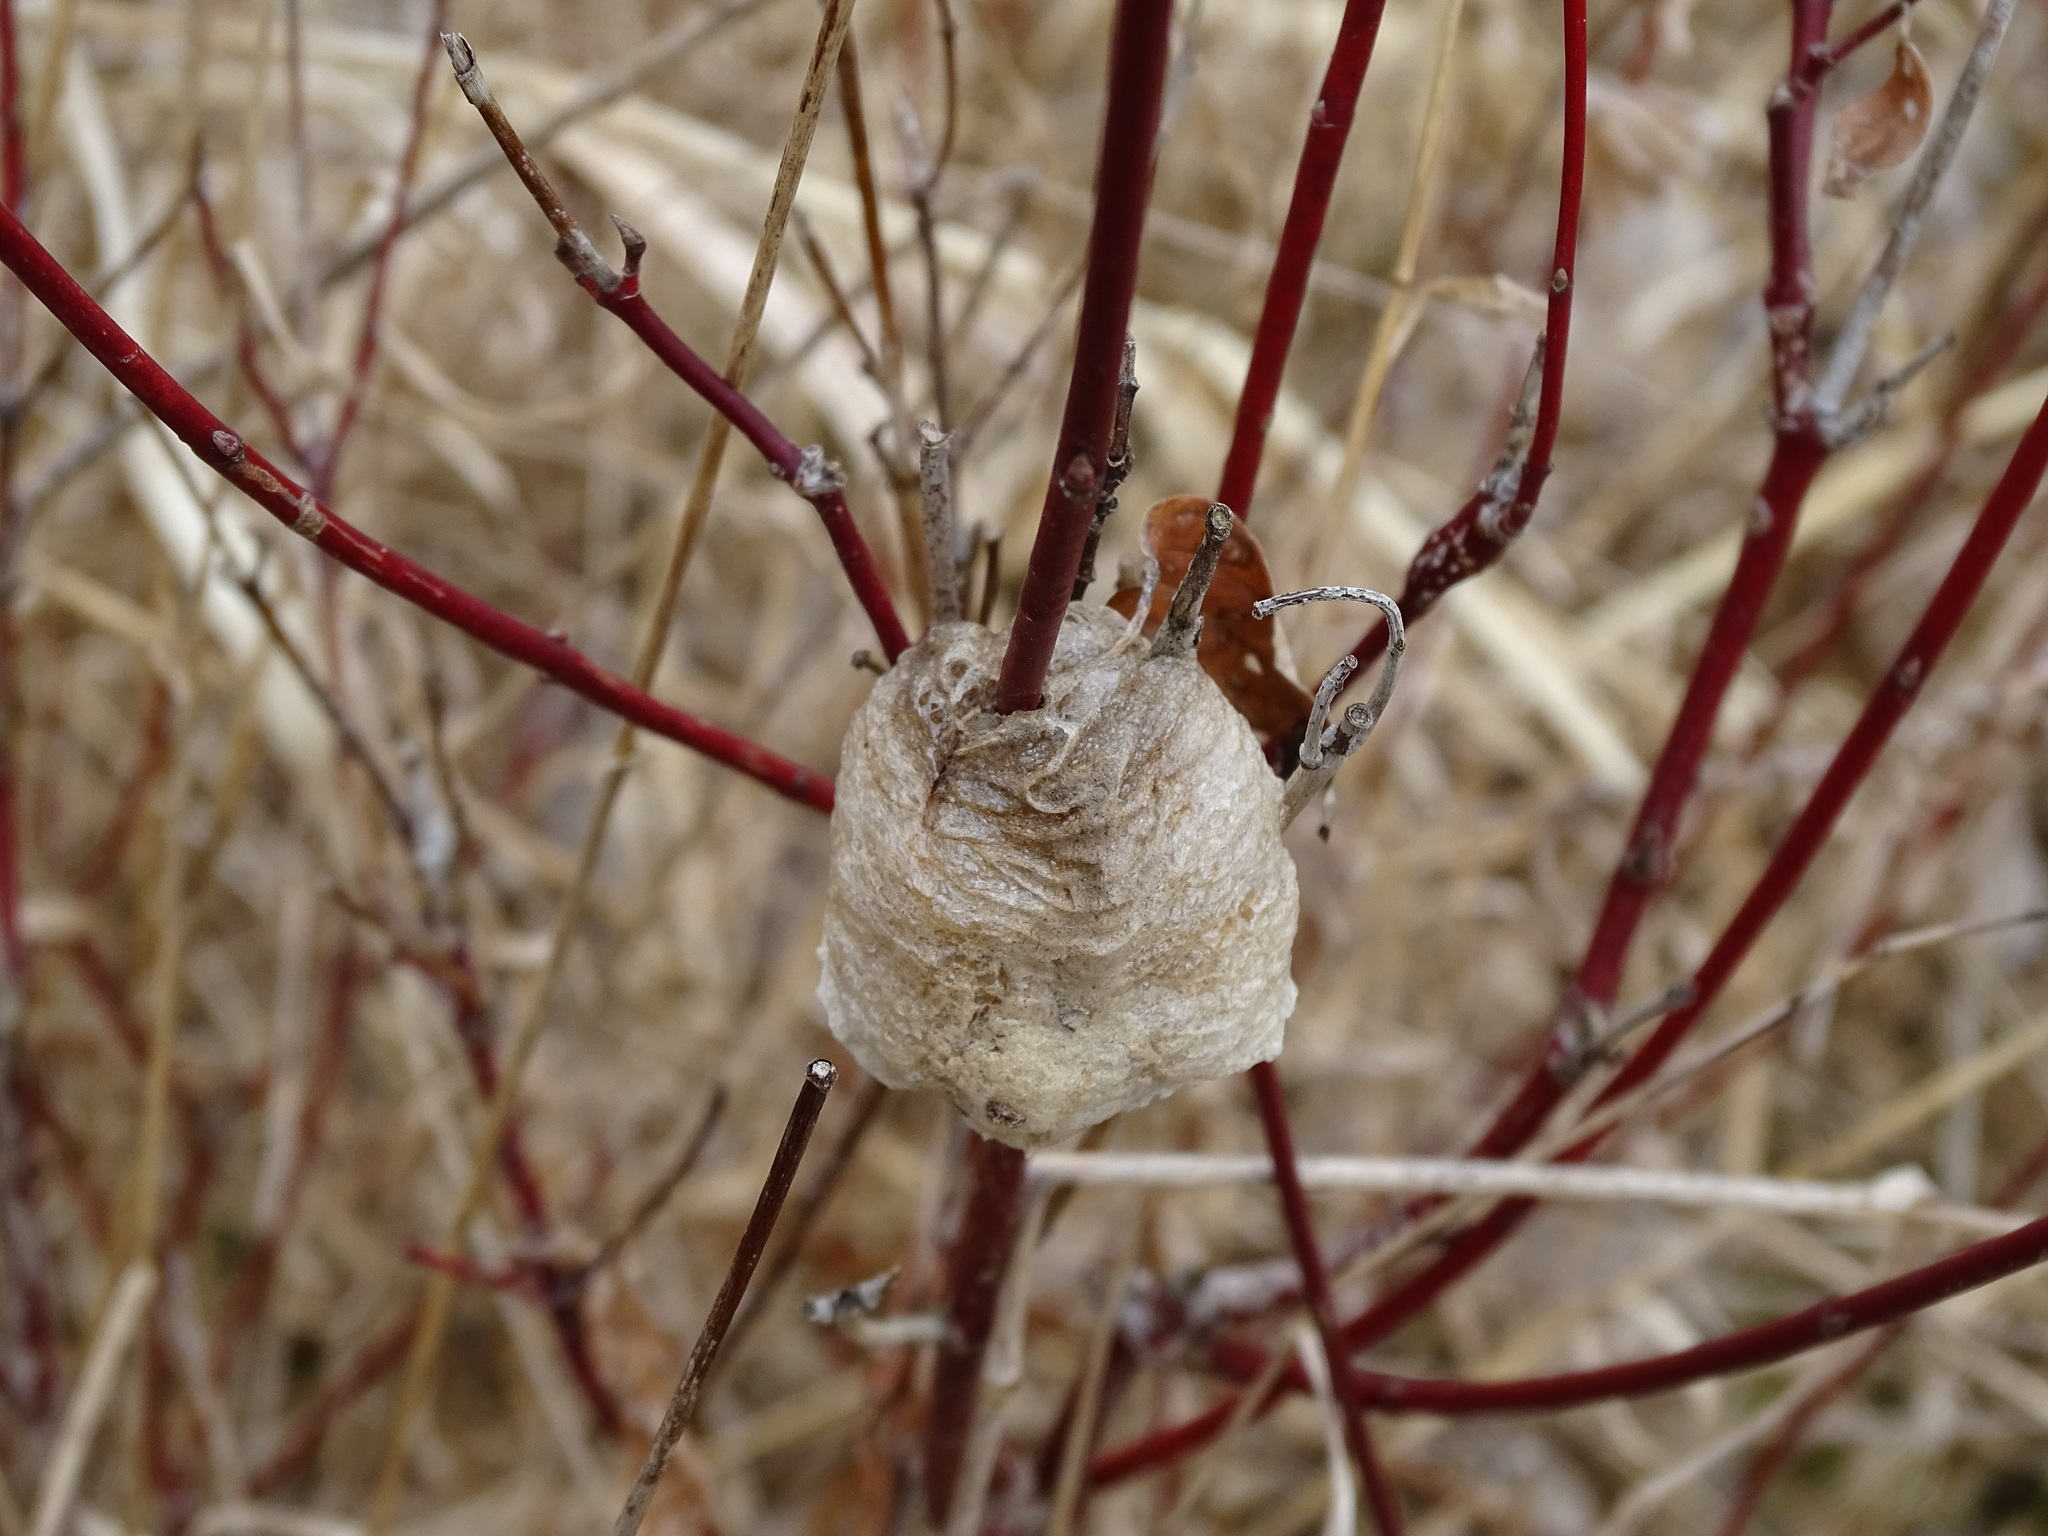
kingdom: Animalia
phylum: Arthropoda
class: Insecta
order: Mantodea
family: Mantidae
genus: Tenodera
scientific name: Tenodera sinensis
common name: Chinese mantis
